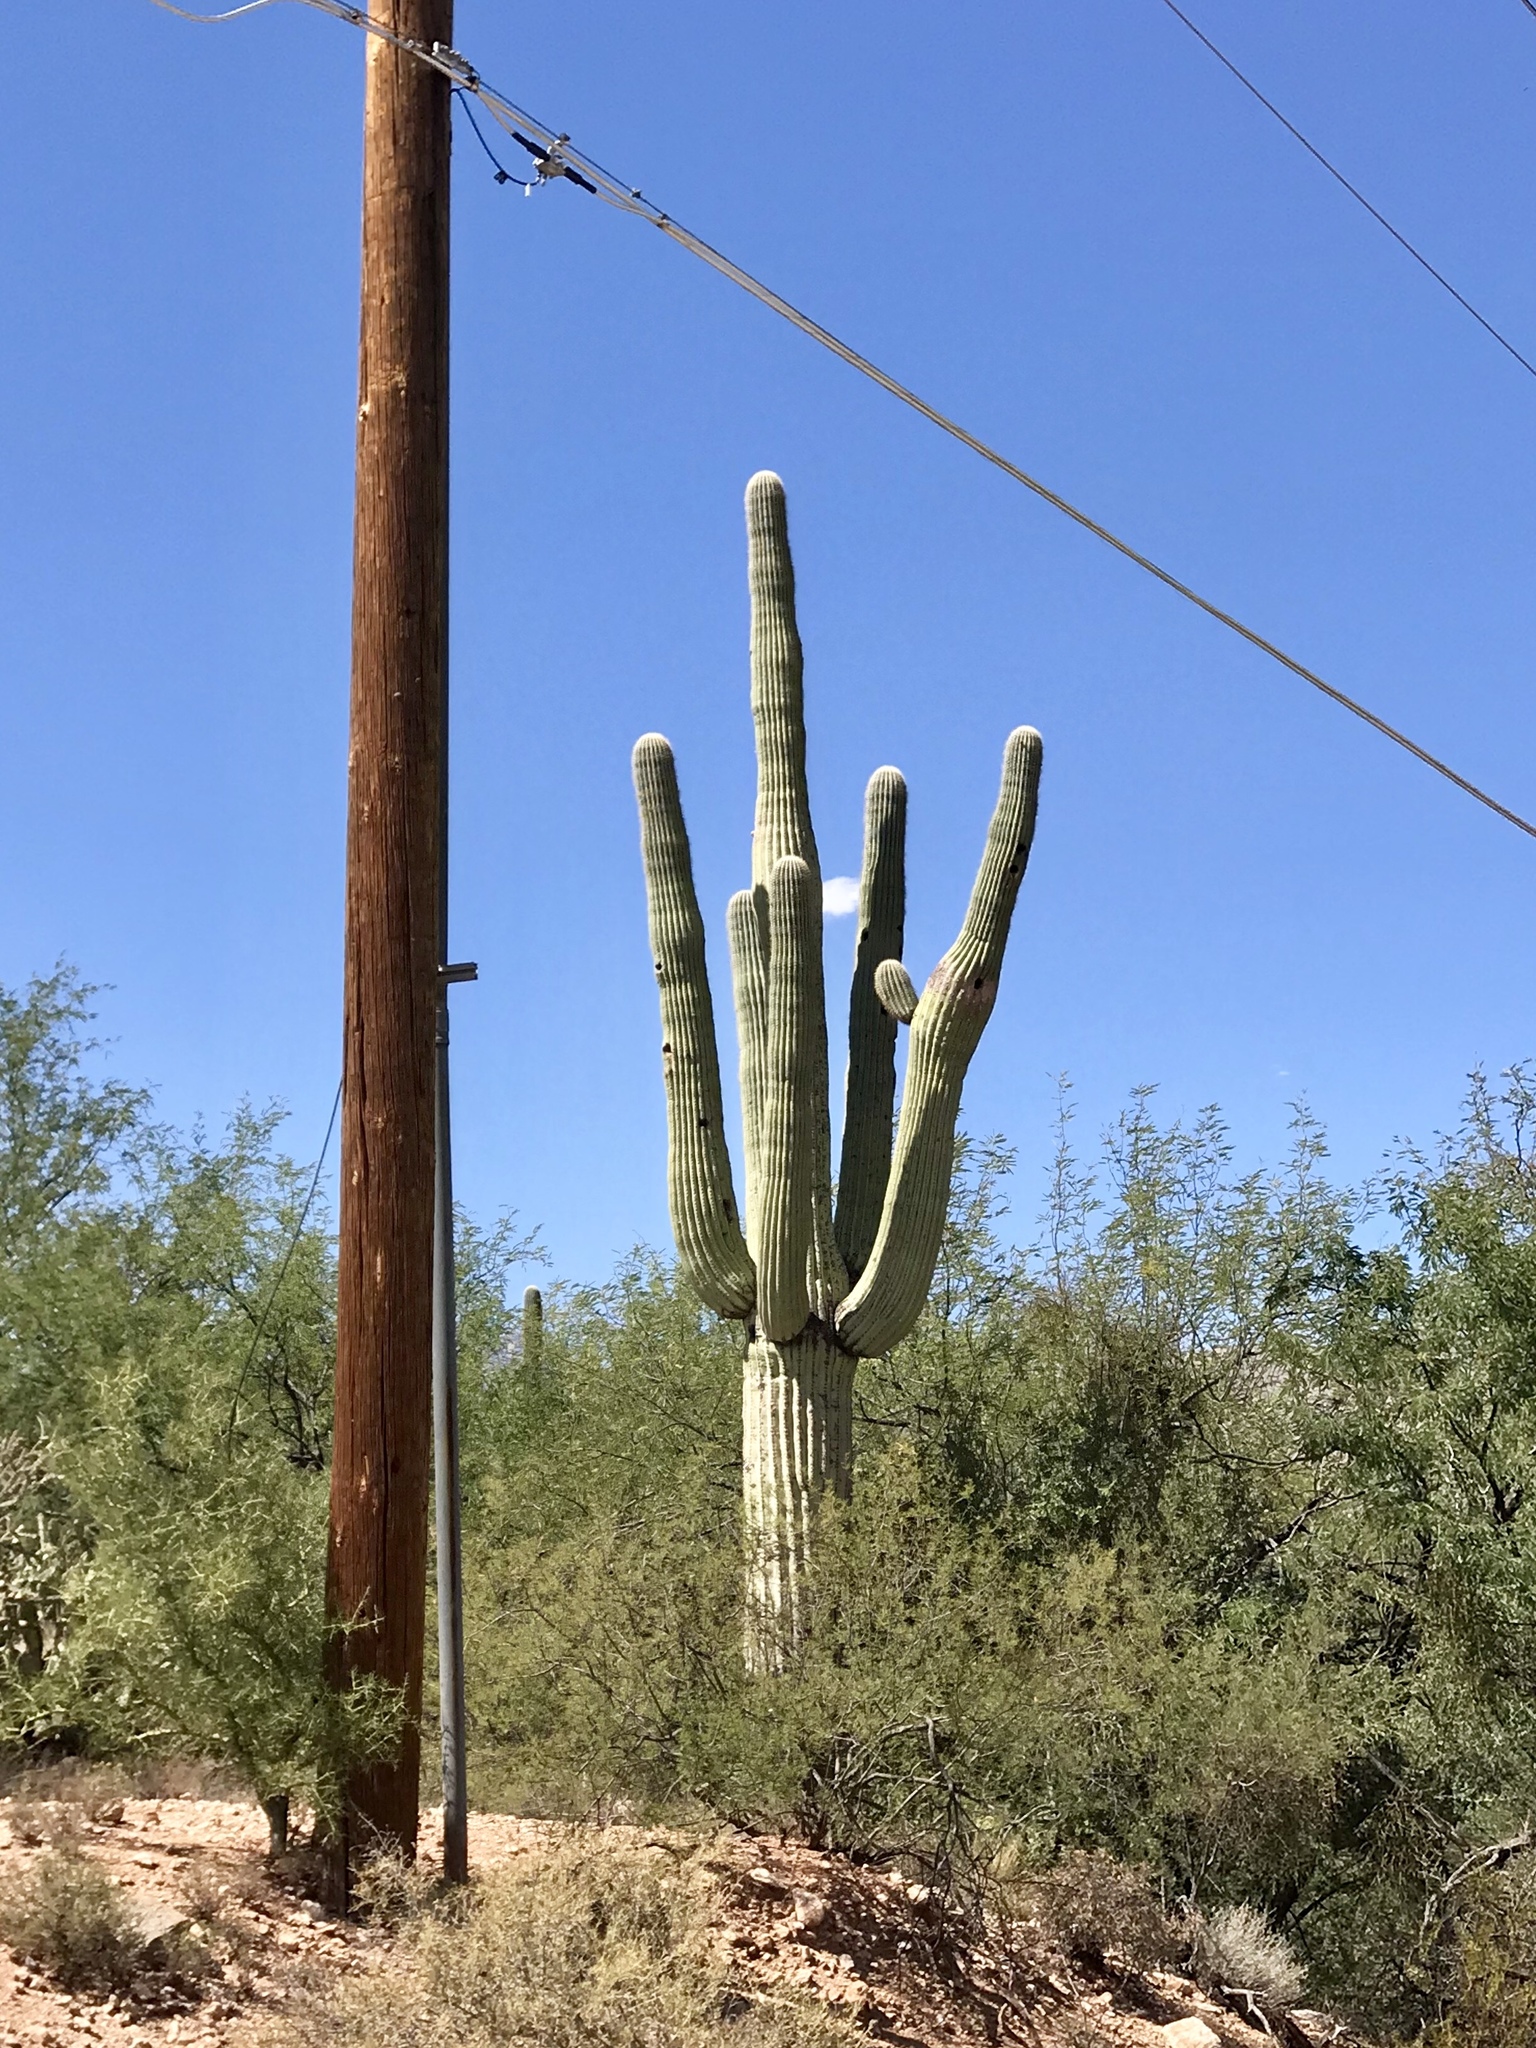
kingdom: Plantae
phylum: Tracheophyta
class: Magnoliopsida
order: Caryophyllales
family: Cactaceae
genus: Carnegiea
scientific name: Carnegiea gigantea
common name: Saguaro
